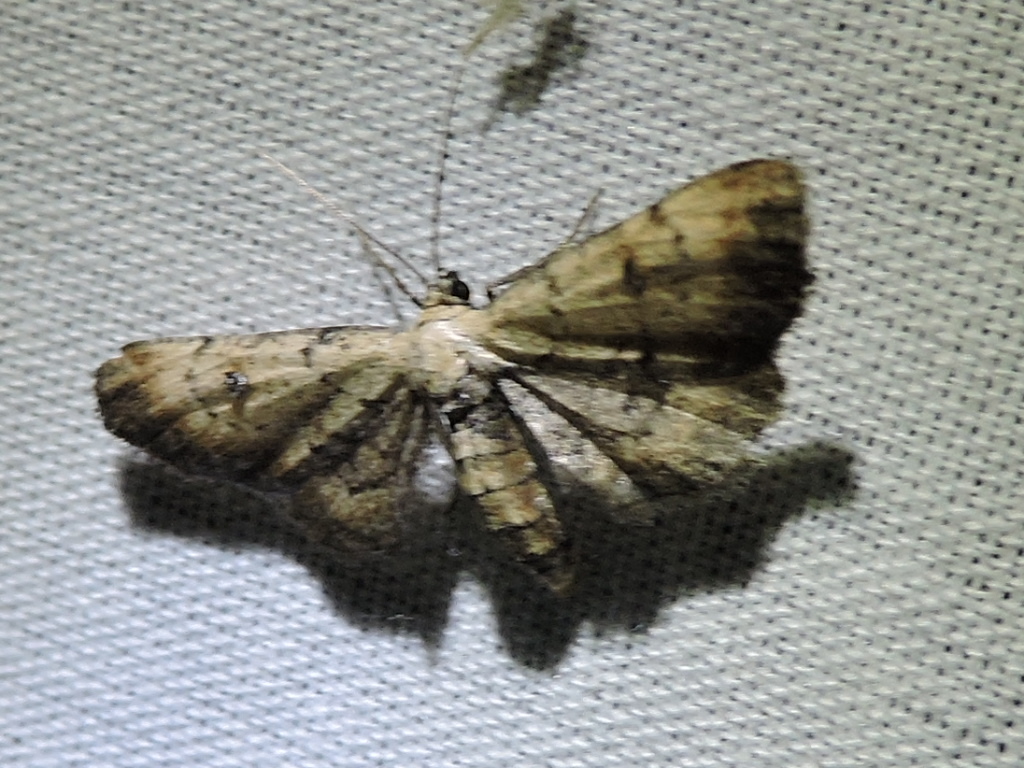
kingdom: Animalia
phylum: Arthropoda
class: Insecta
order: Lepidoptera
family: Geometridae
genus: Tornos
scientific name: Tornos scolopacinaria
